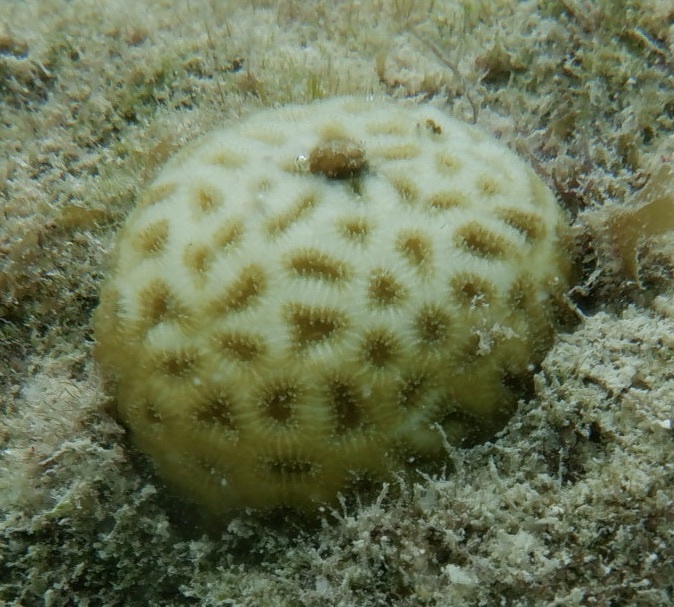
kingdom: Animalia
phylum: Cnidaria
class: Anthozoa
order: Scleractinia
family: Faviidae
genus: Favia
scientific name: Favia fragum
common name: Golfball coral
